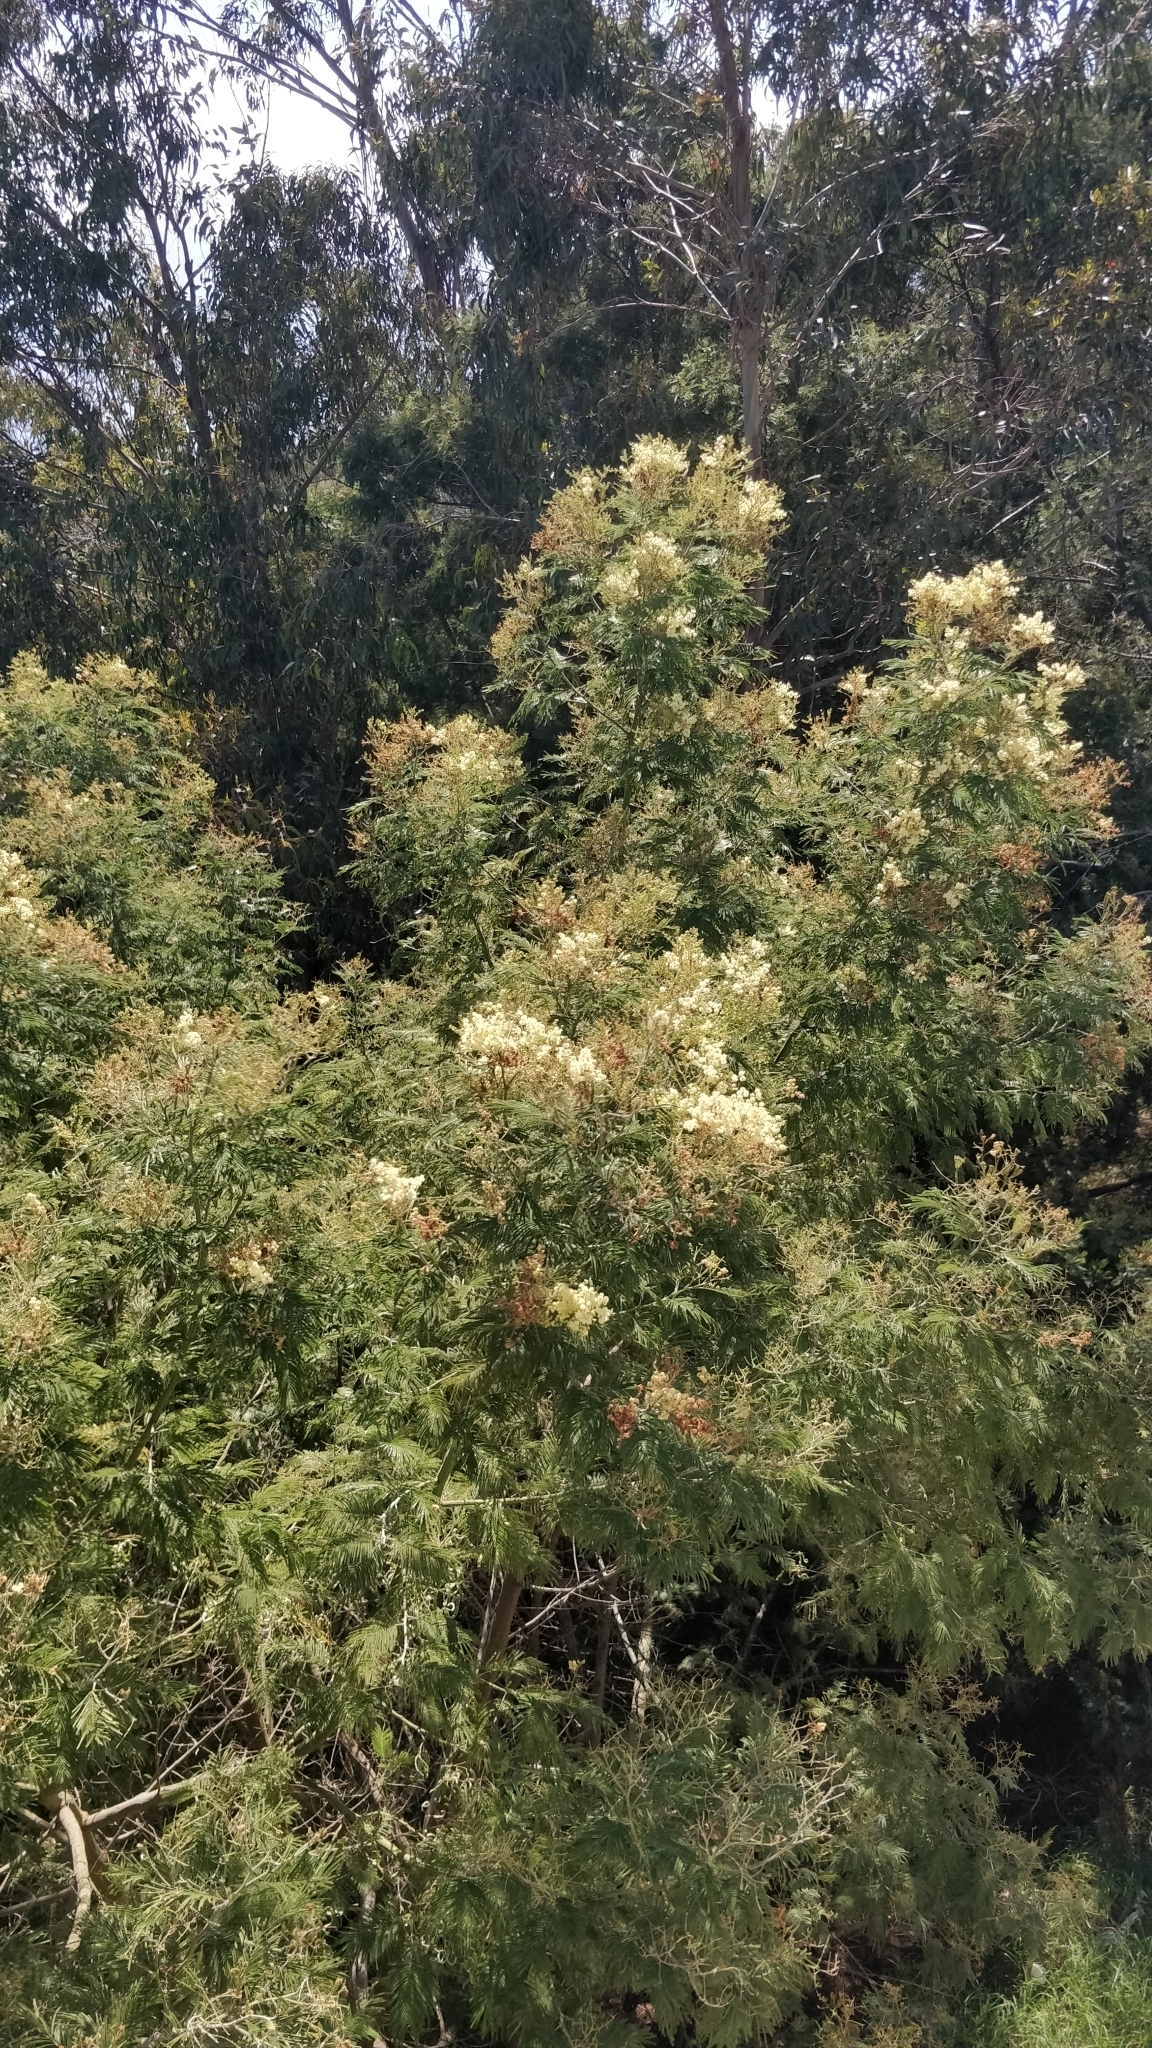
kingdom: Plantae
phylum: Tracheophyta
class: Magnoliopsida
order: Fabales
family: Fabaceae
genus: Acacia
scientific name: Acacia mearnsii
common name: Black wattle
